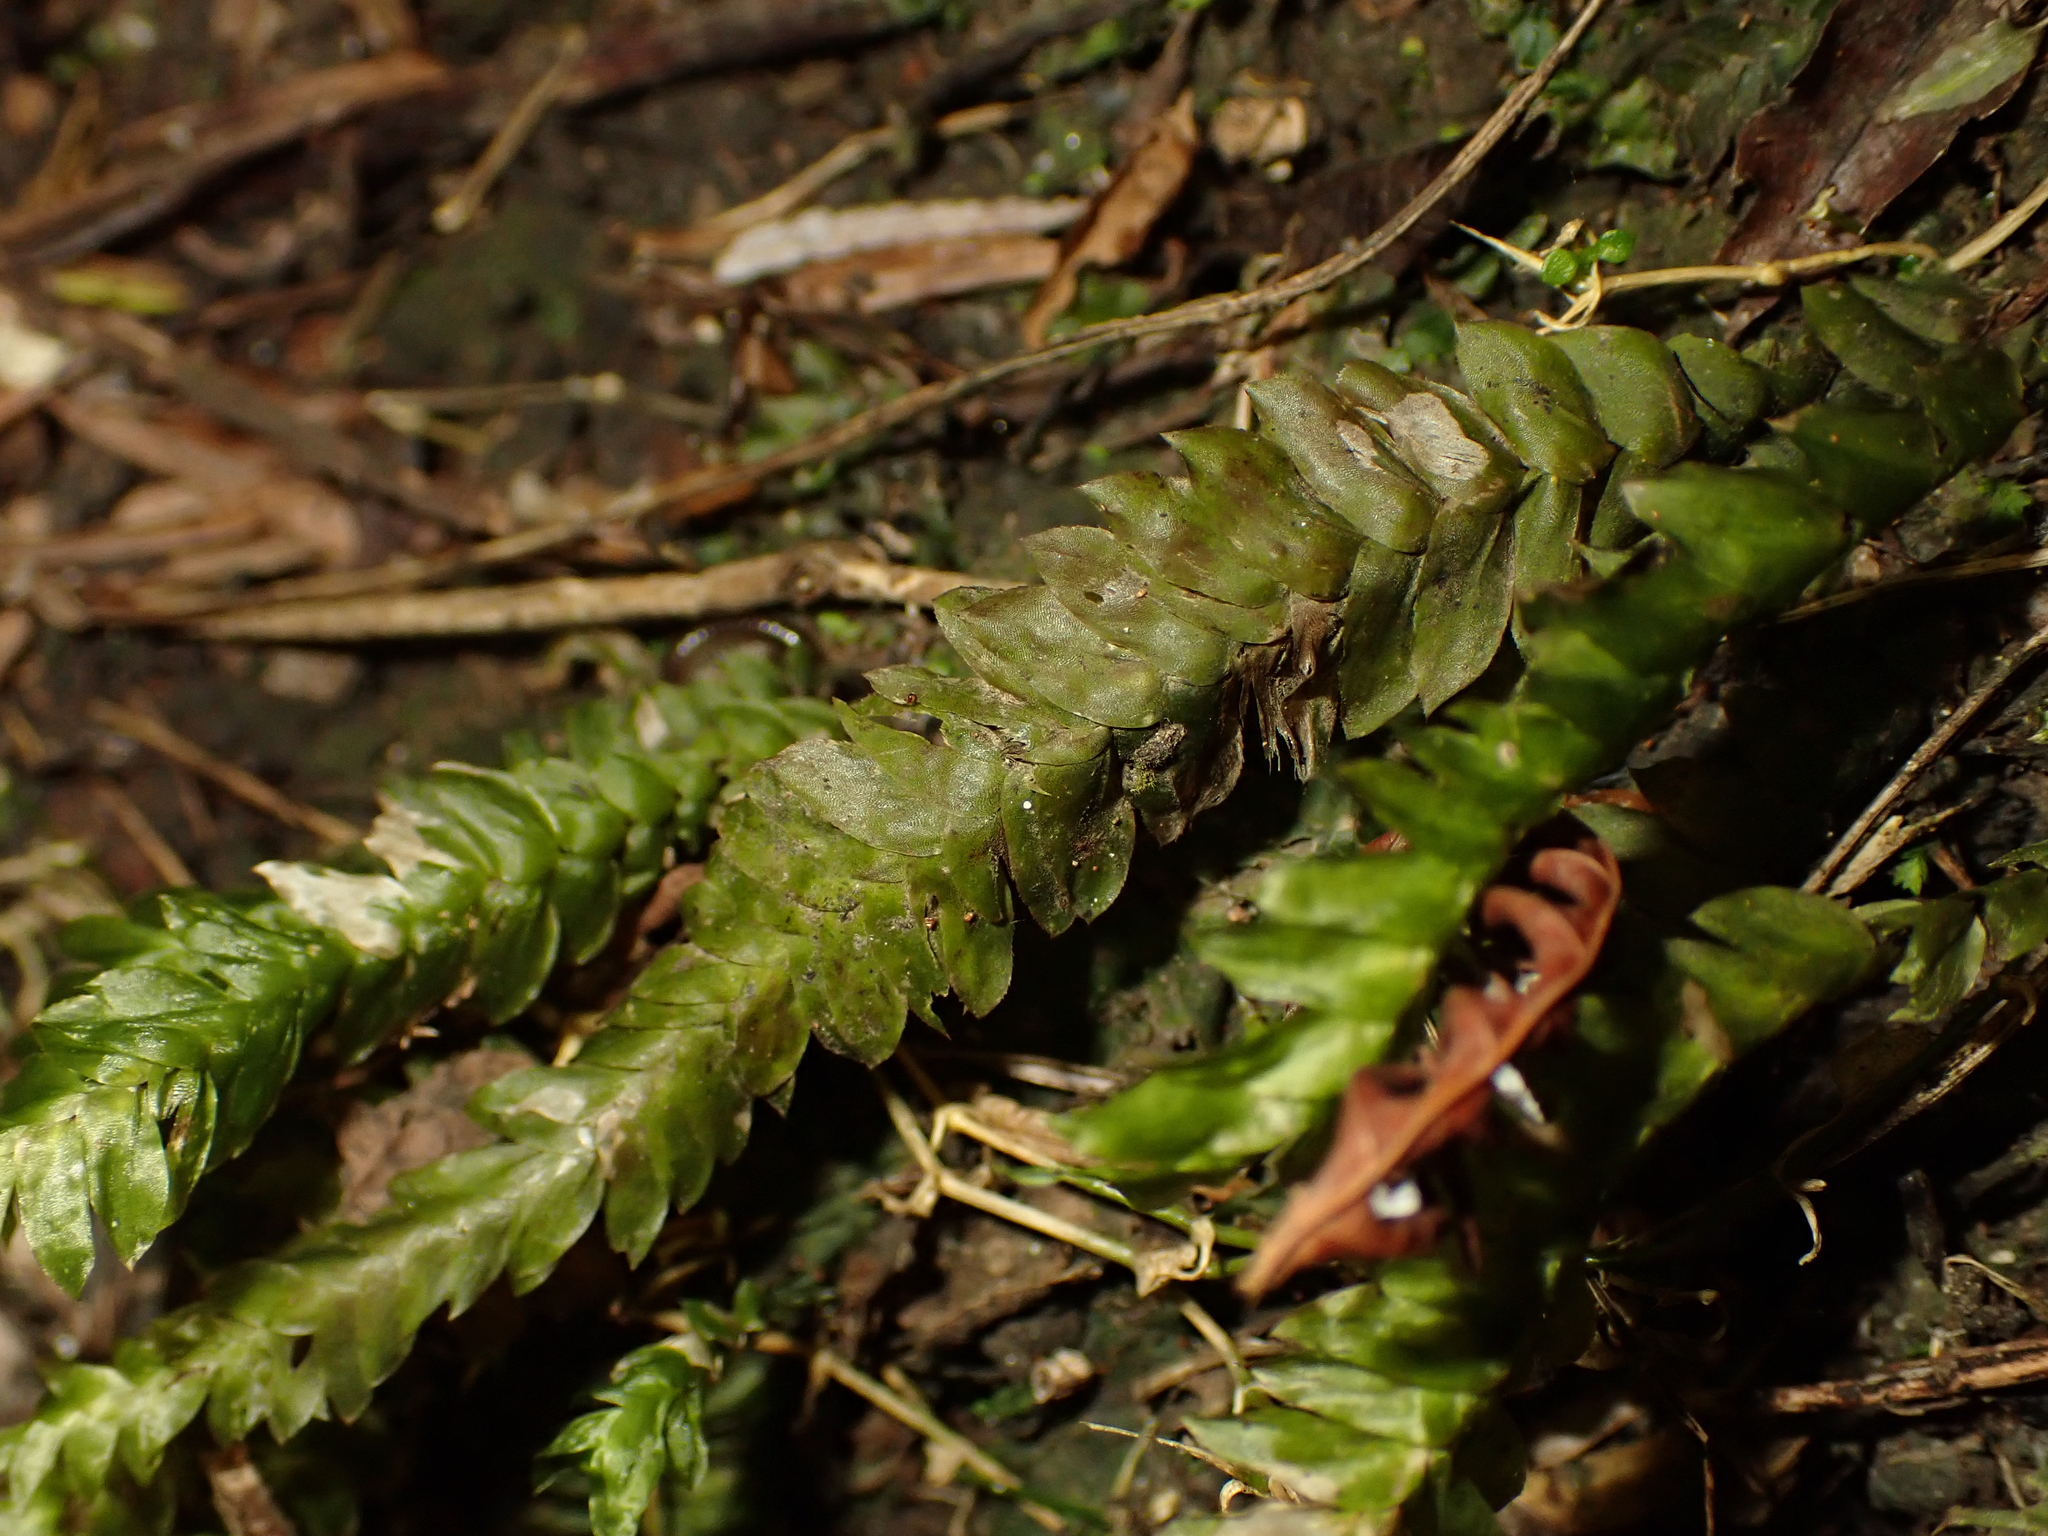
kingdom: Plantae
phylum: Bryophyta
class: Bryopsida
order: Hypopterygiales
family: Hypopterygiaceae
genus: Cyathophorum
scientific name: Cyathophorum bulbosum
